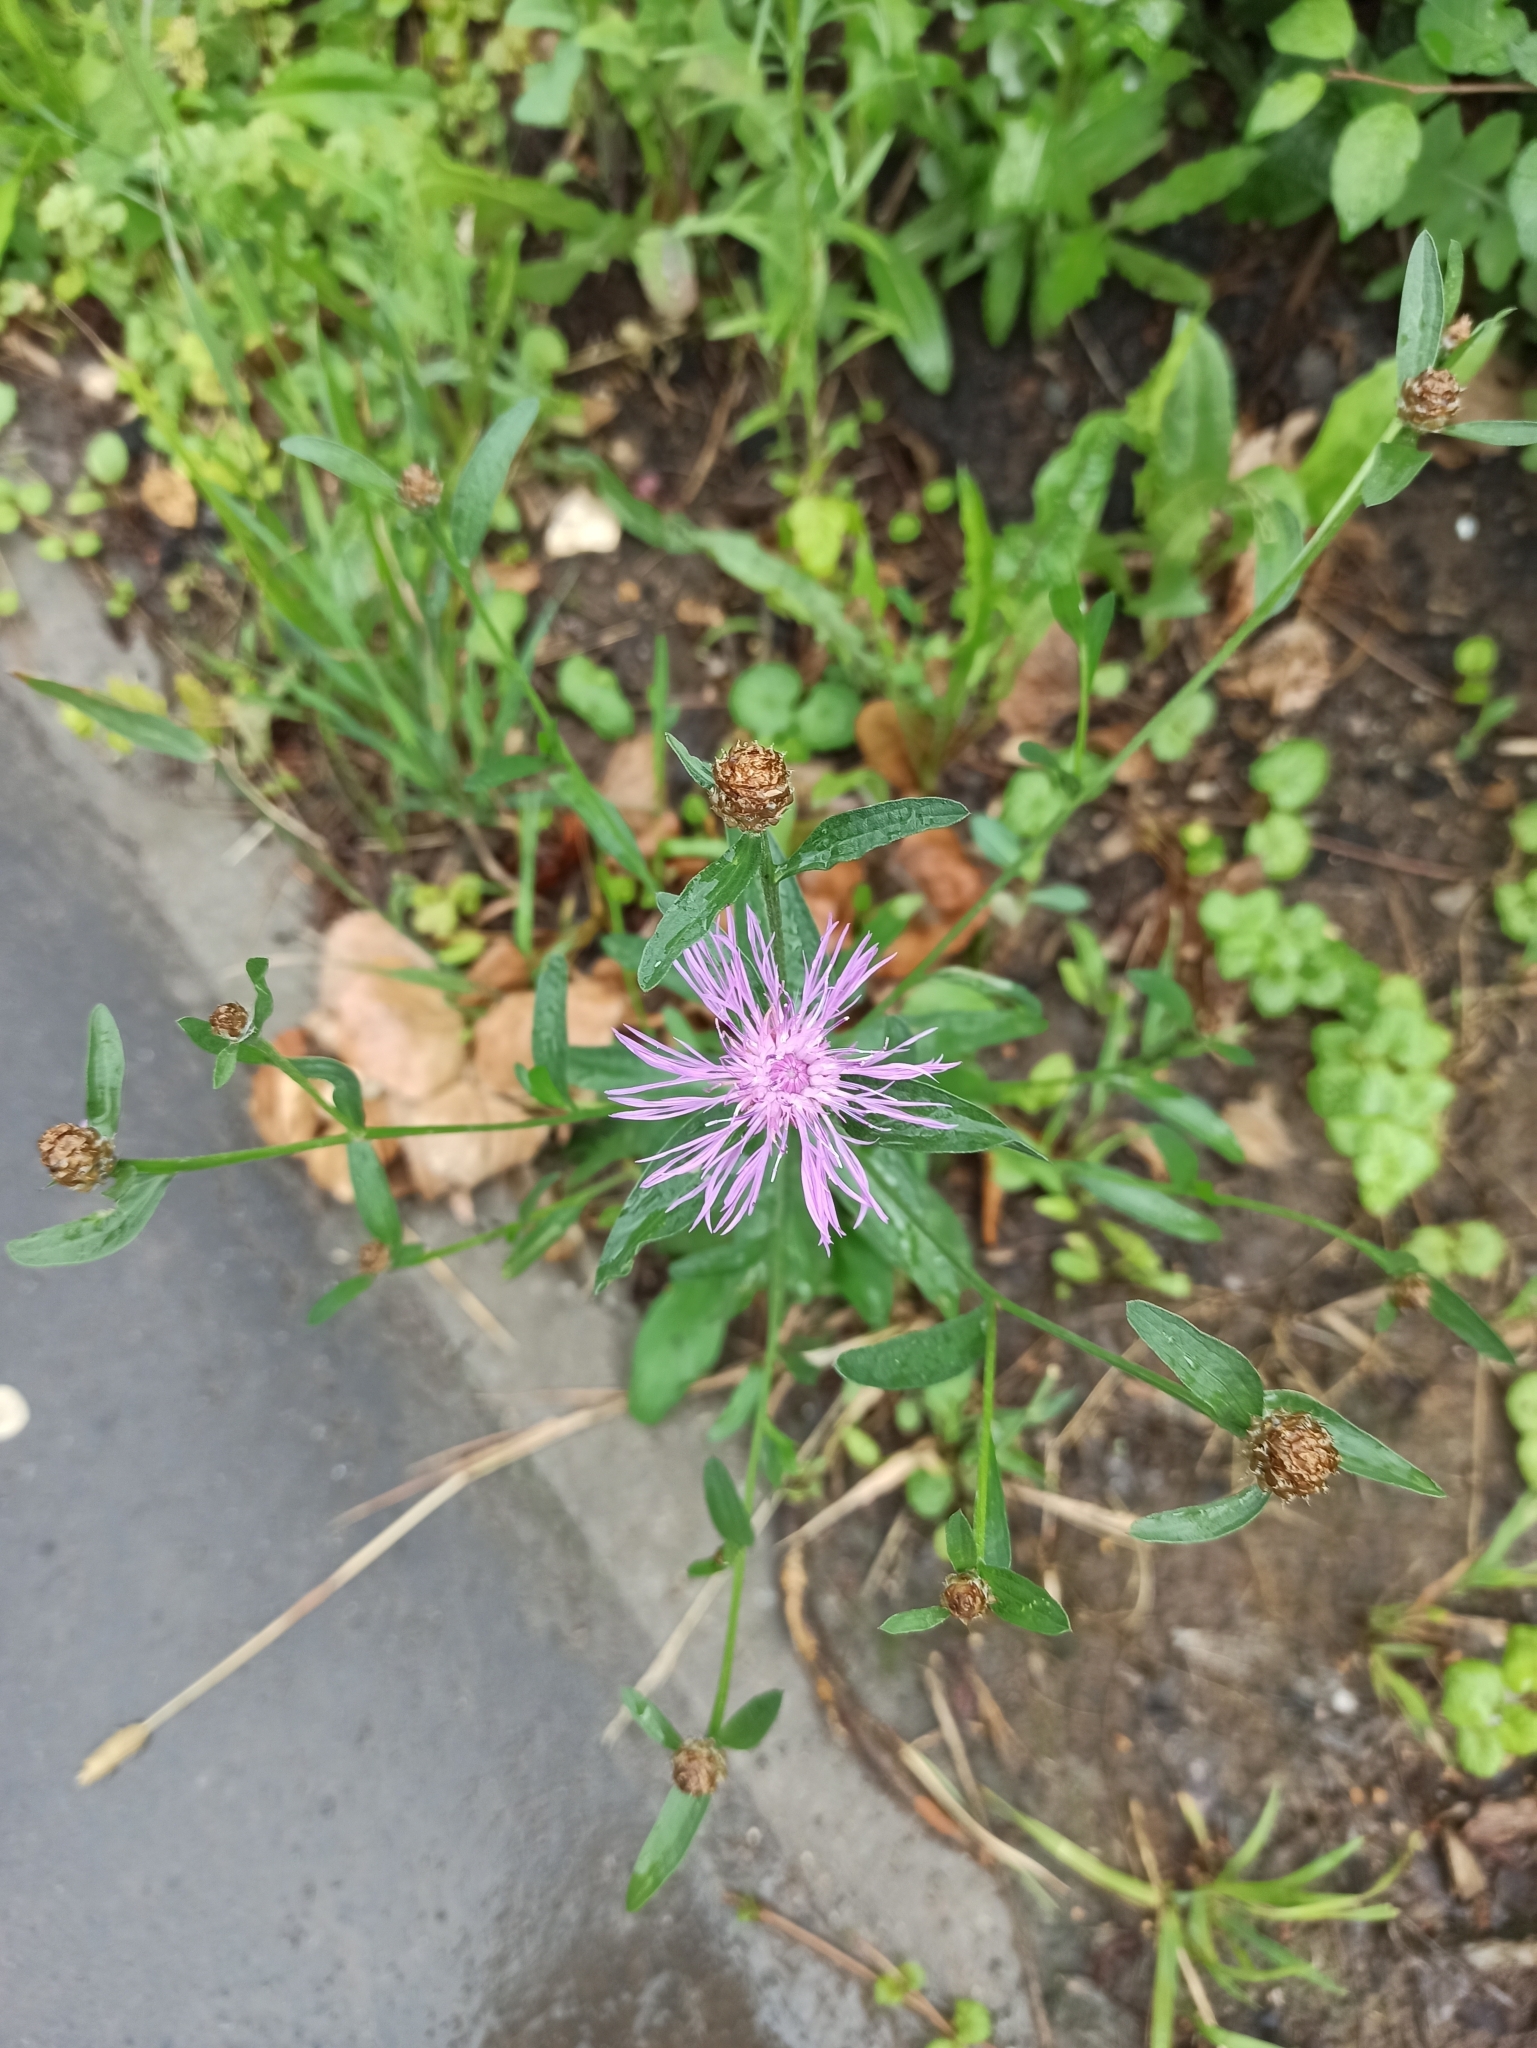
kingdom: Plantae
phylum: Tracheophyta
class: Magnoliopsida
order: Asterales
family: Asteraceae
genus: Centaurea
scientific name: Centaurea jacea
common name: Brown knapweed
